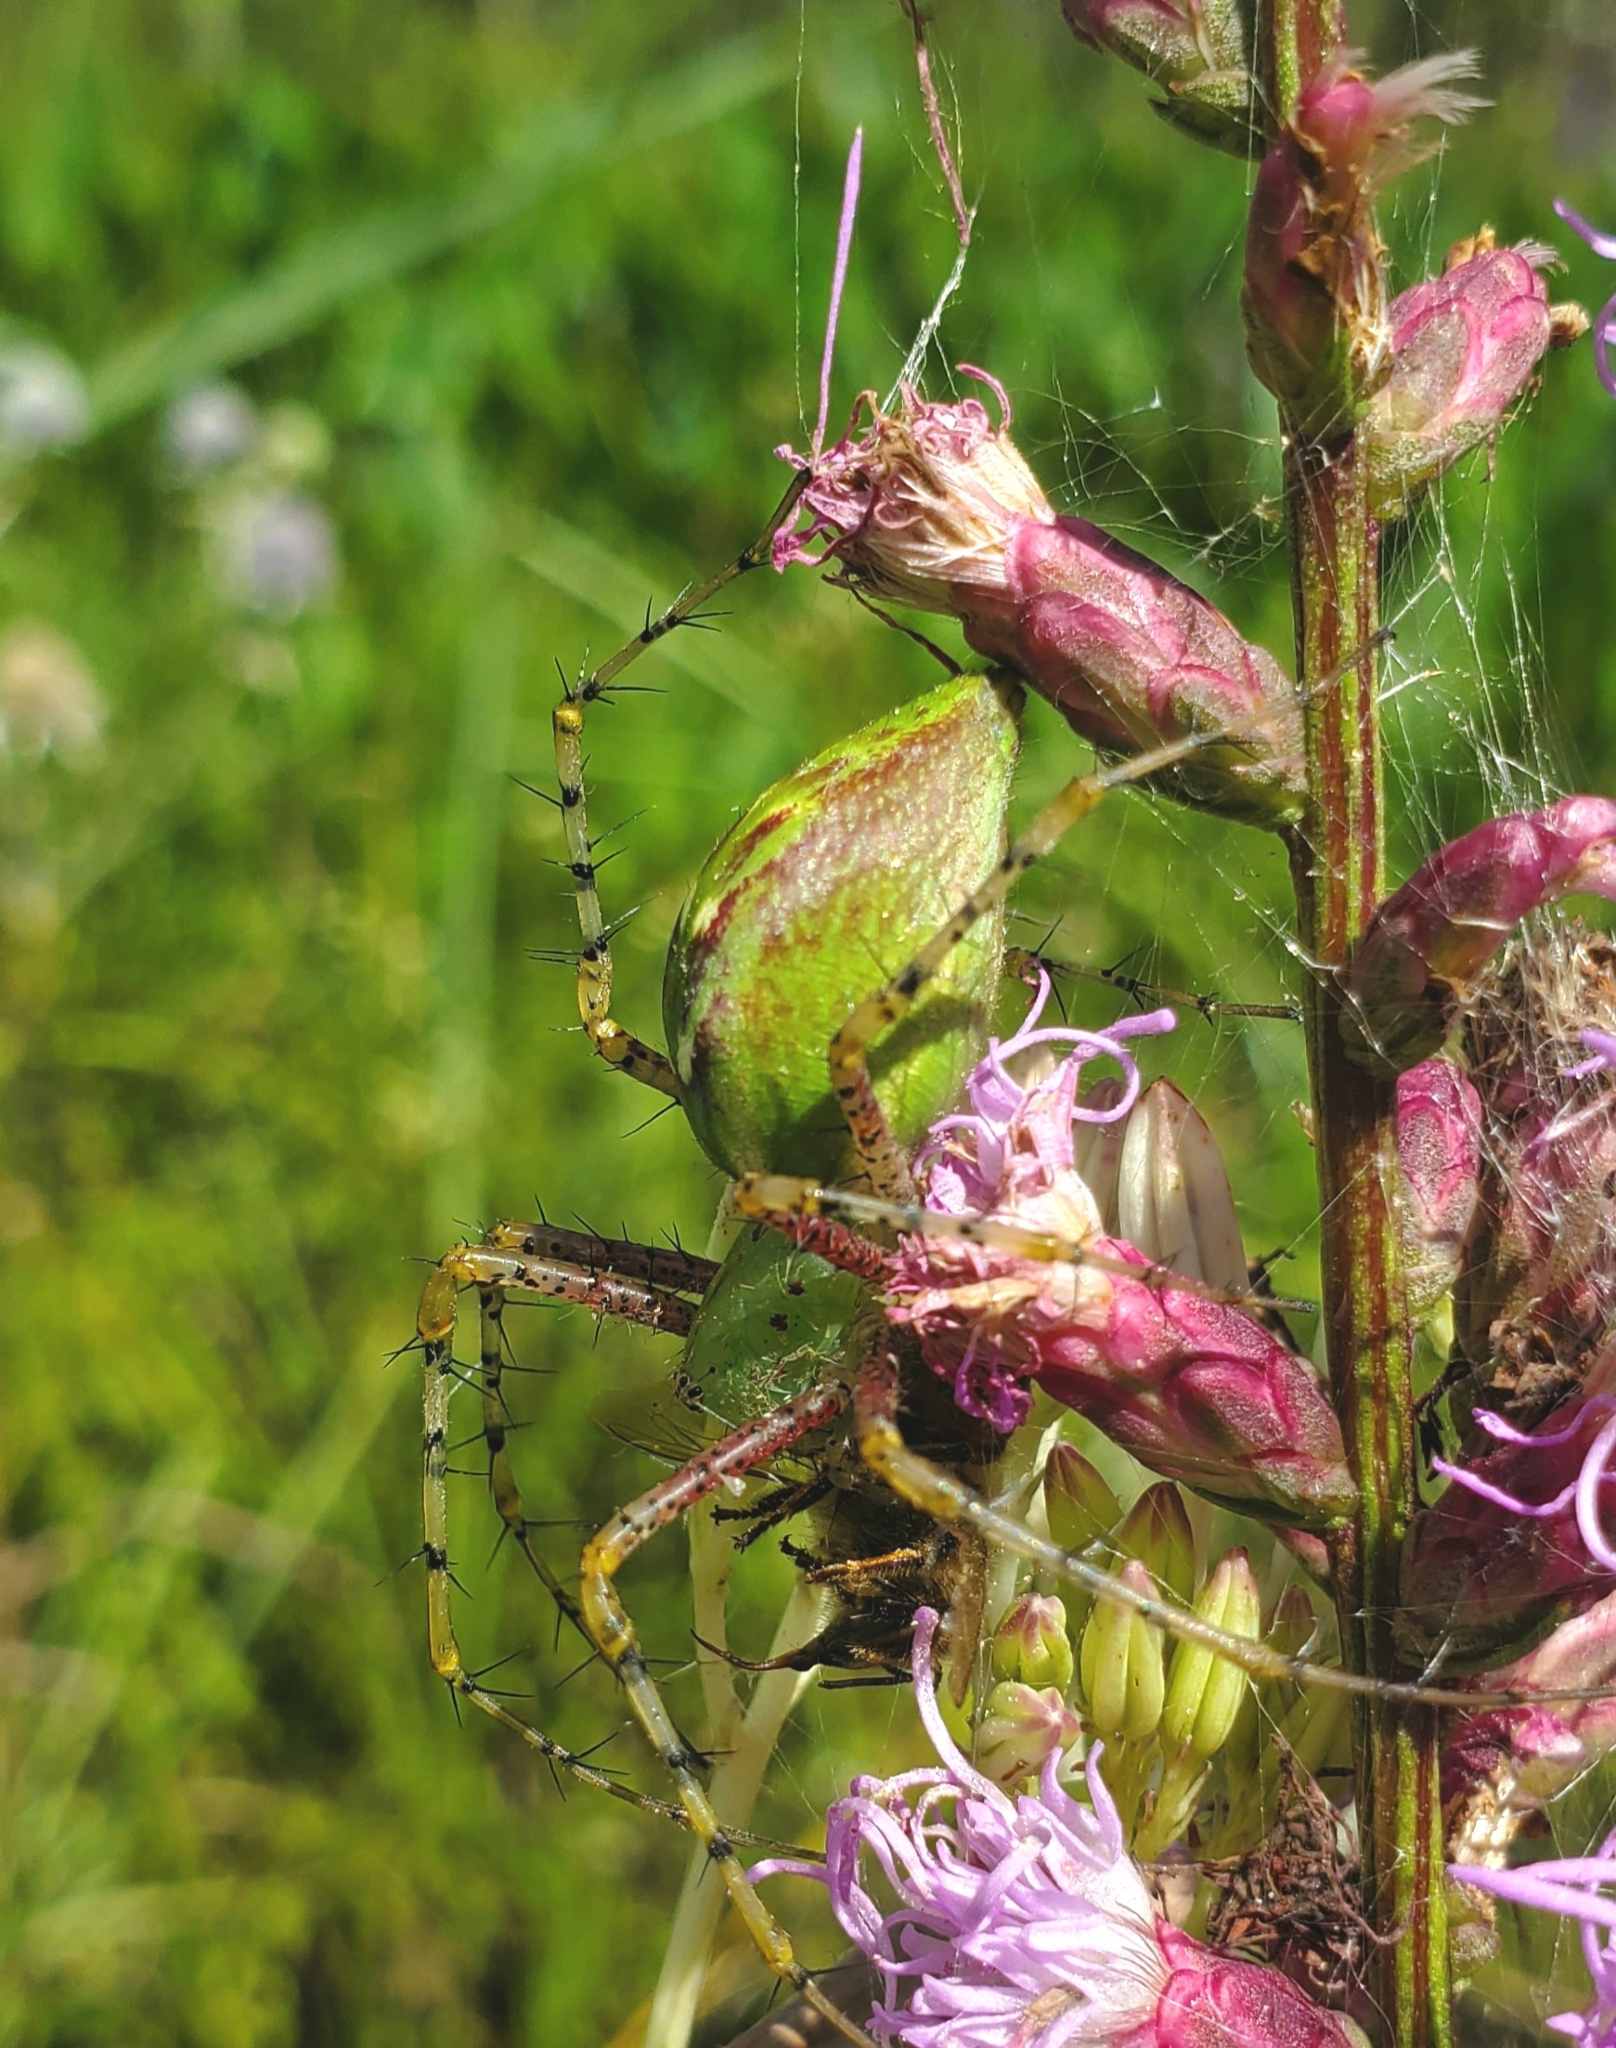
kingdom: Animalia
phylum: Arthropoda
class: Arachnida
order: Araneae
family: Oxyopidae
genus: Peucetia
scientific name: Peucetia viridans
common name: Lynx spiders
